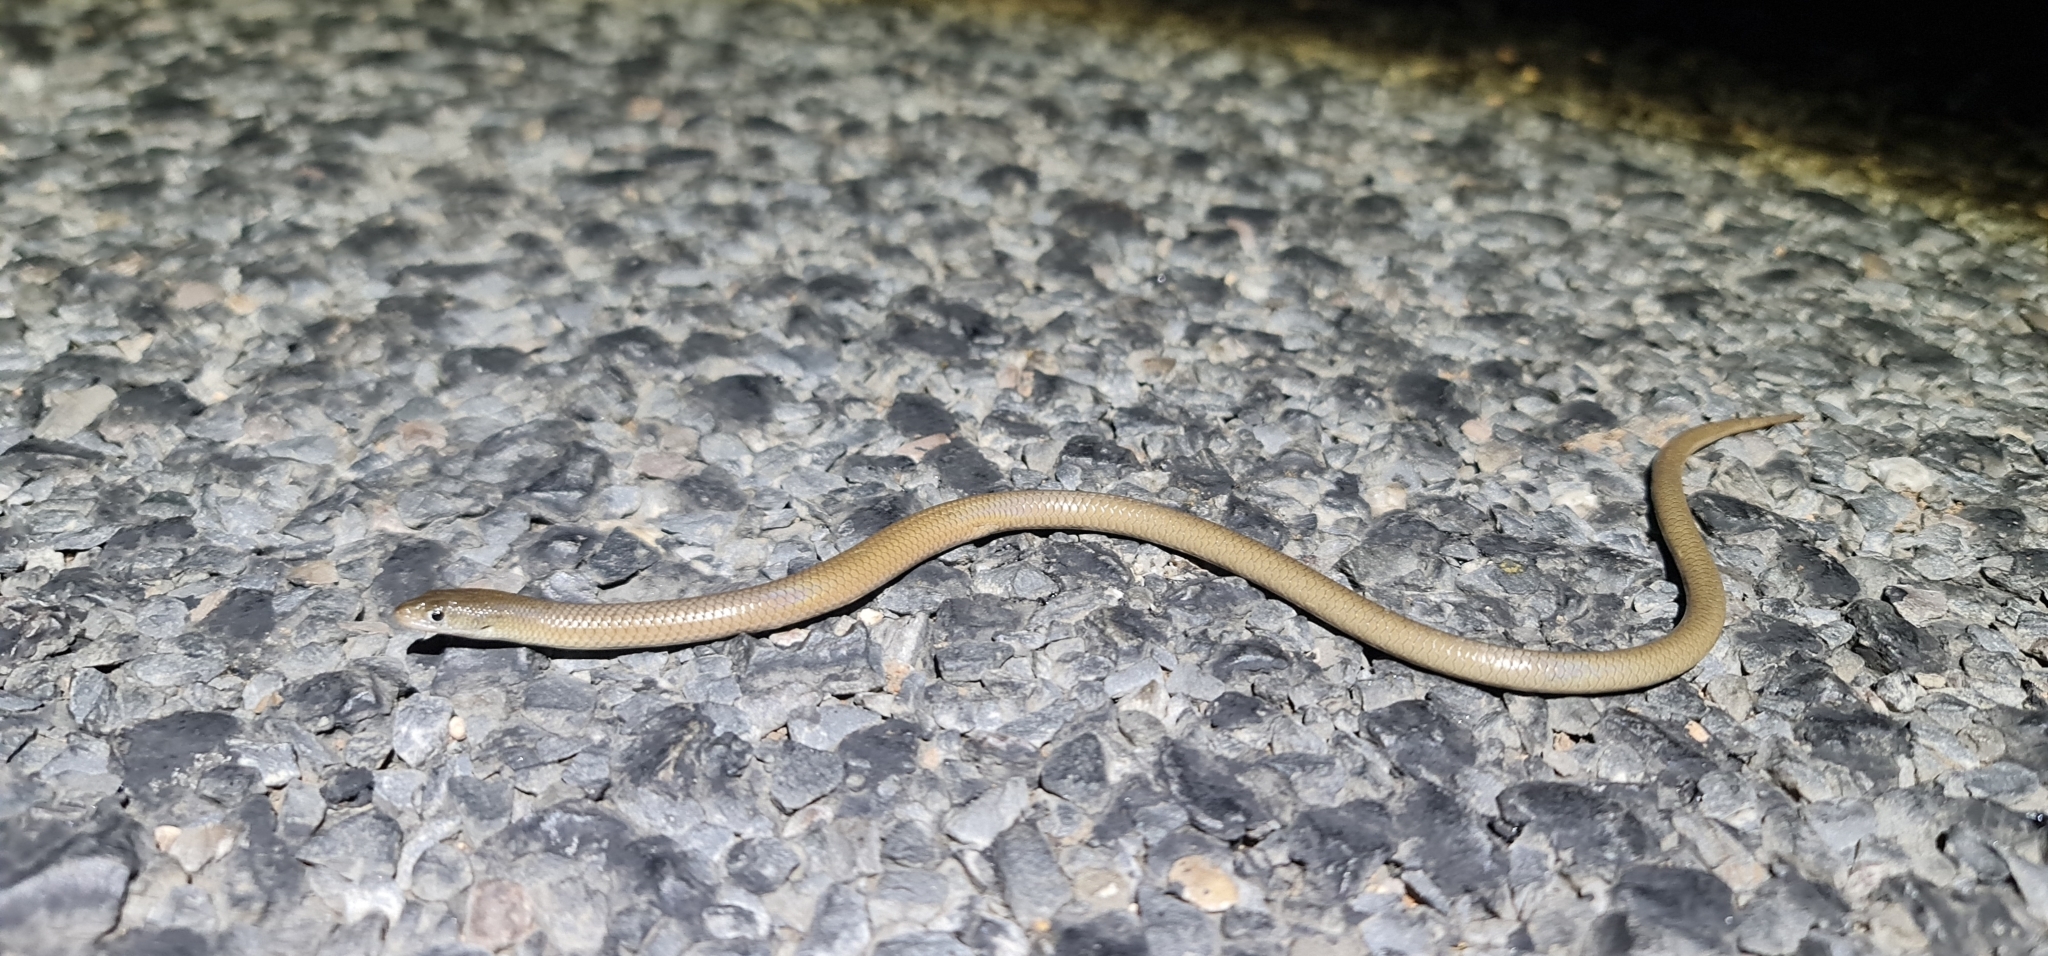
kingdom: Animalia
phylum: Chordata
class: Squamata
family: Pygopodidae
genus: Delma
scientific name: Delma butleri
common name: Butler's legless lizard
